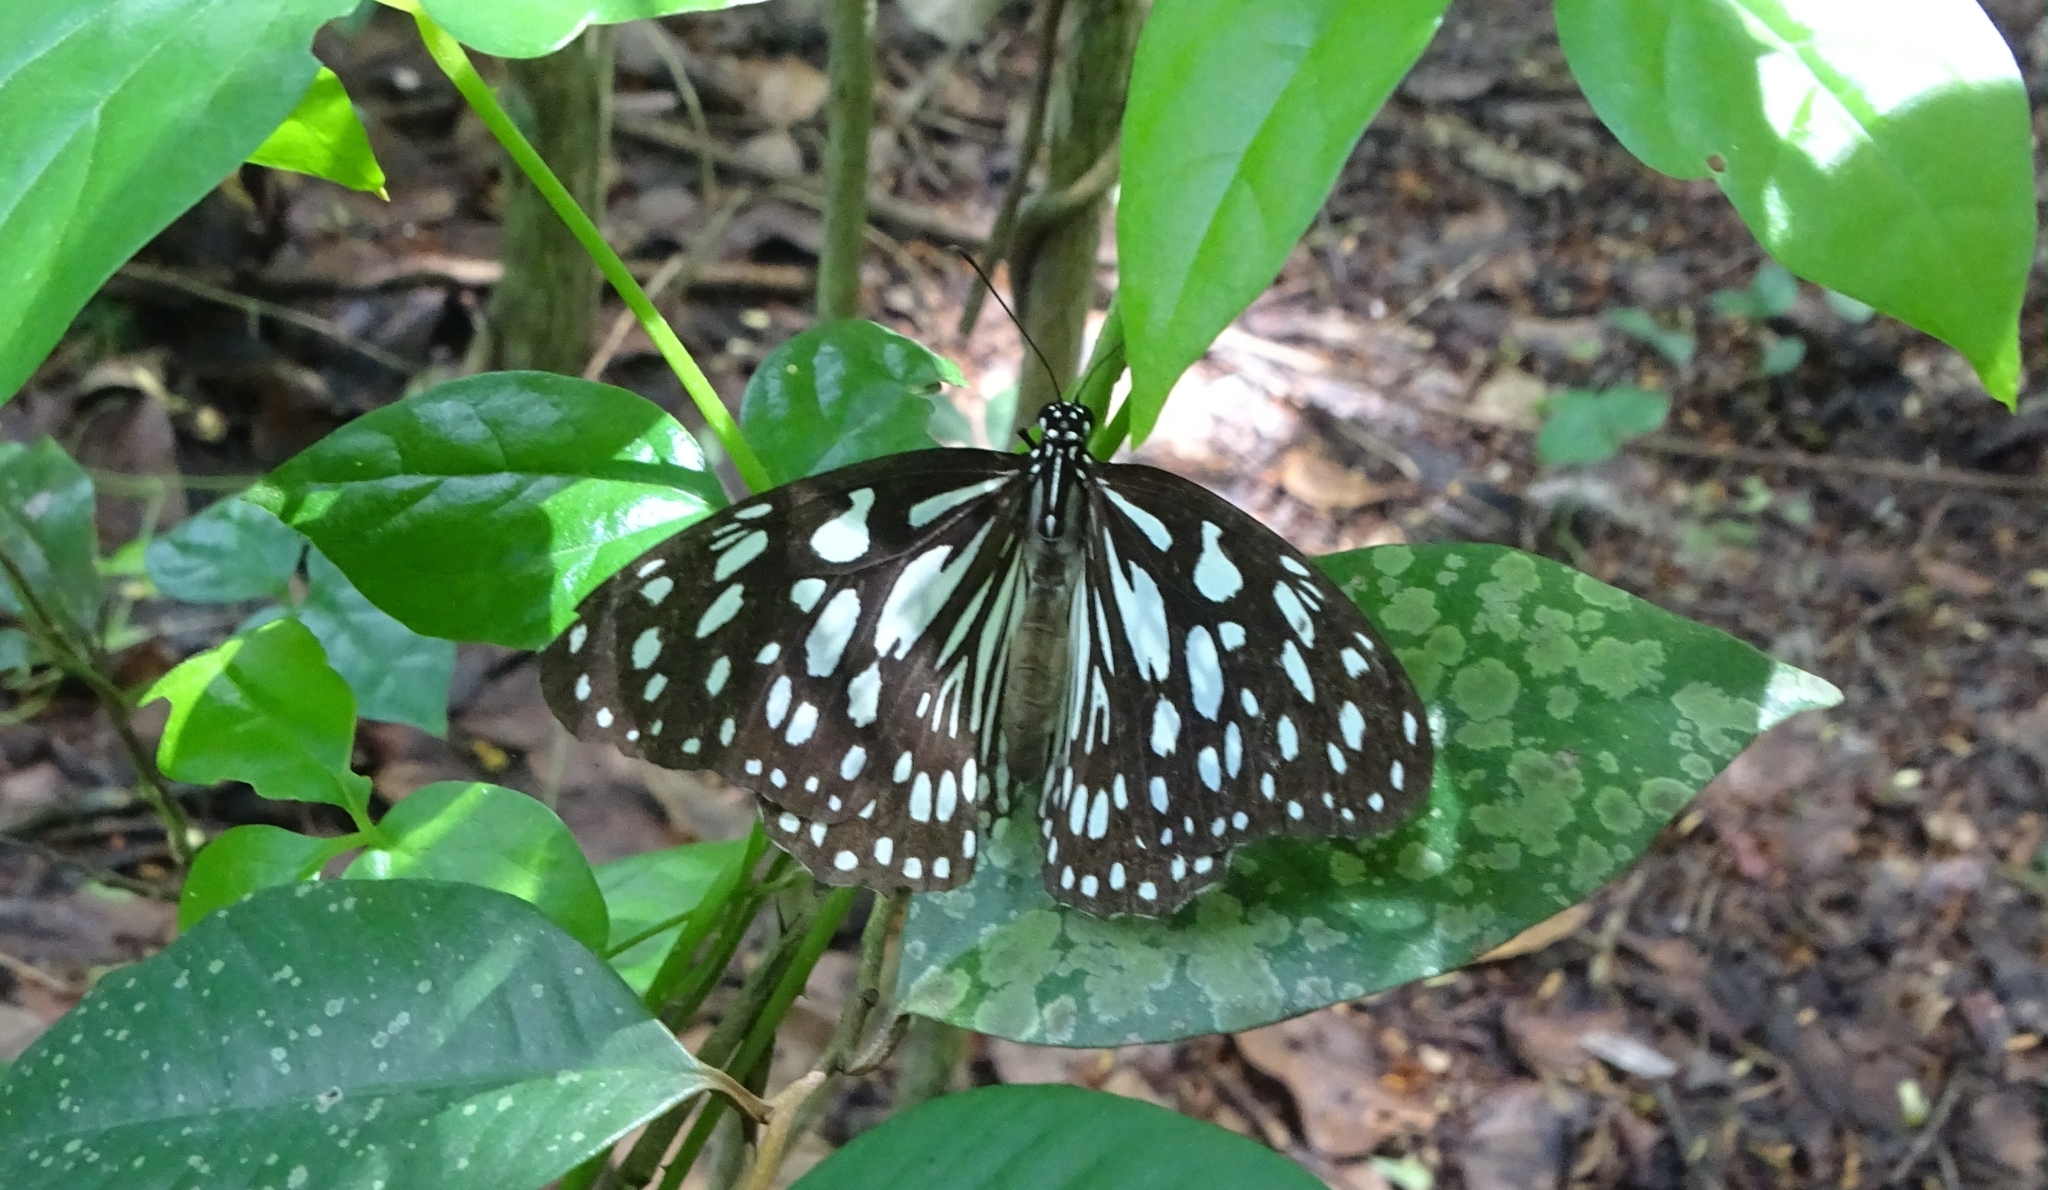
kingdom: Animalia
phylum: Arthropoda
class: Insecta
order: Lepidoptera
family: Nymphalidae
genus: Tirumala
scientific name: Tirumala limniace
